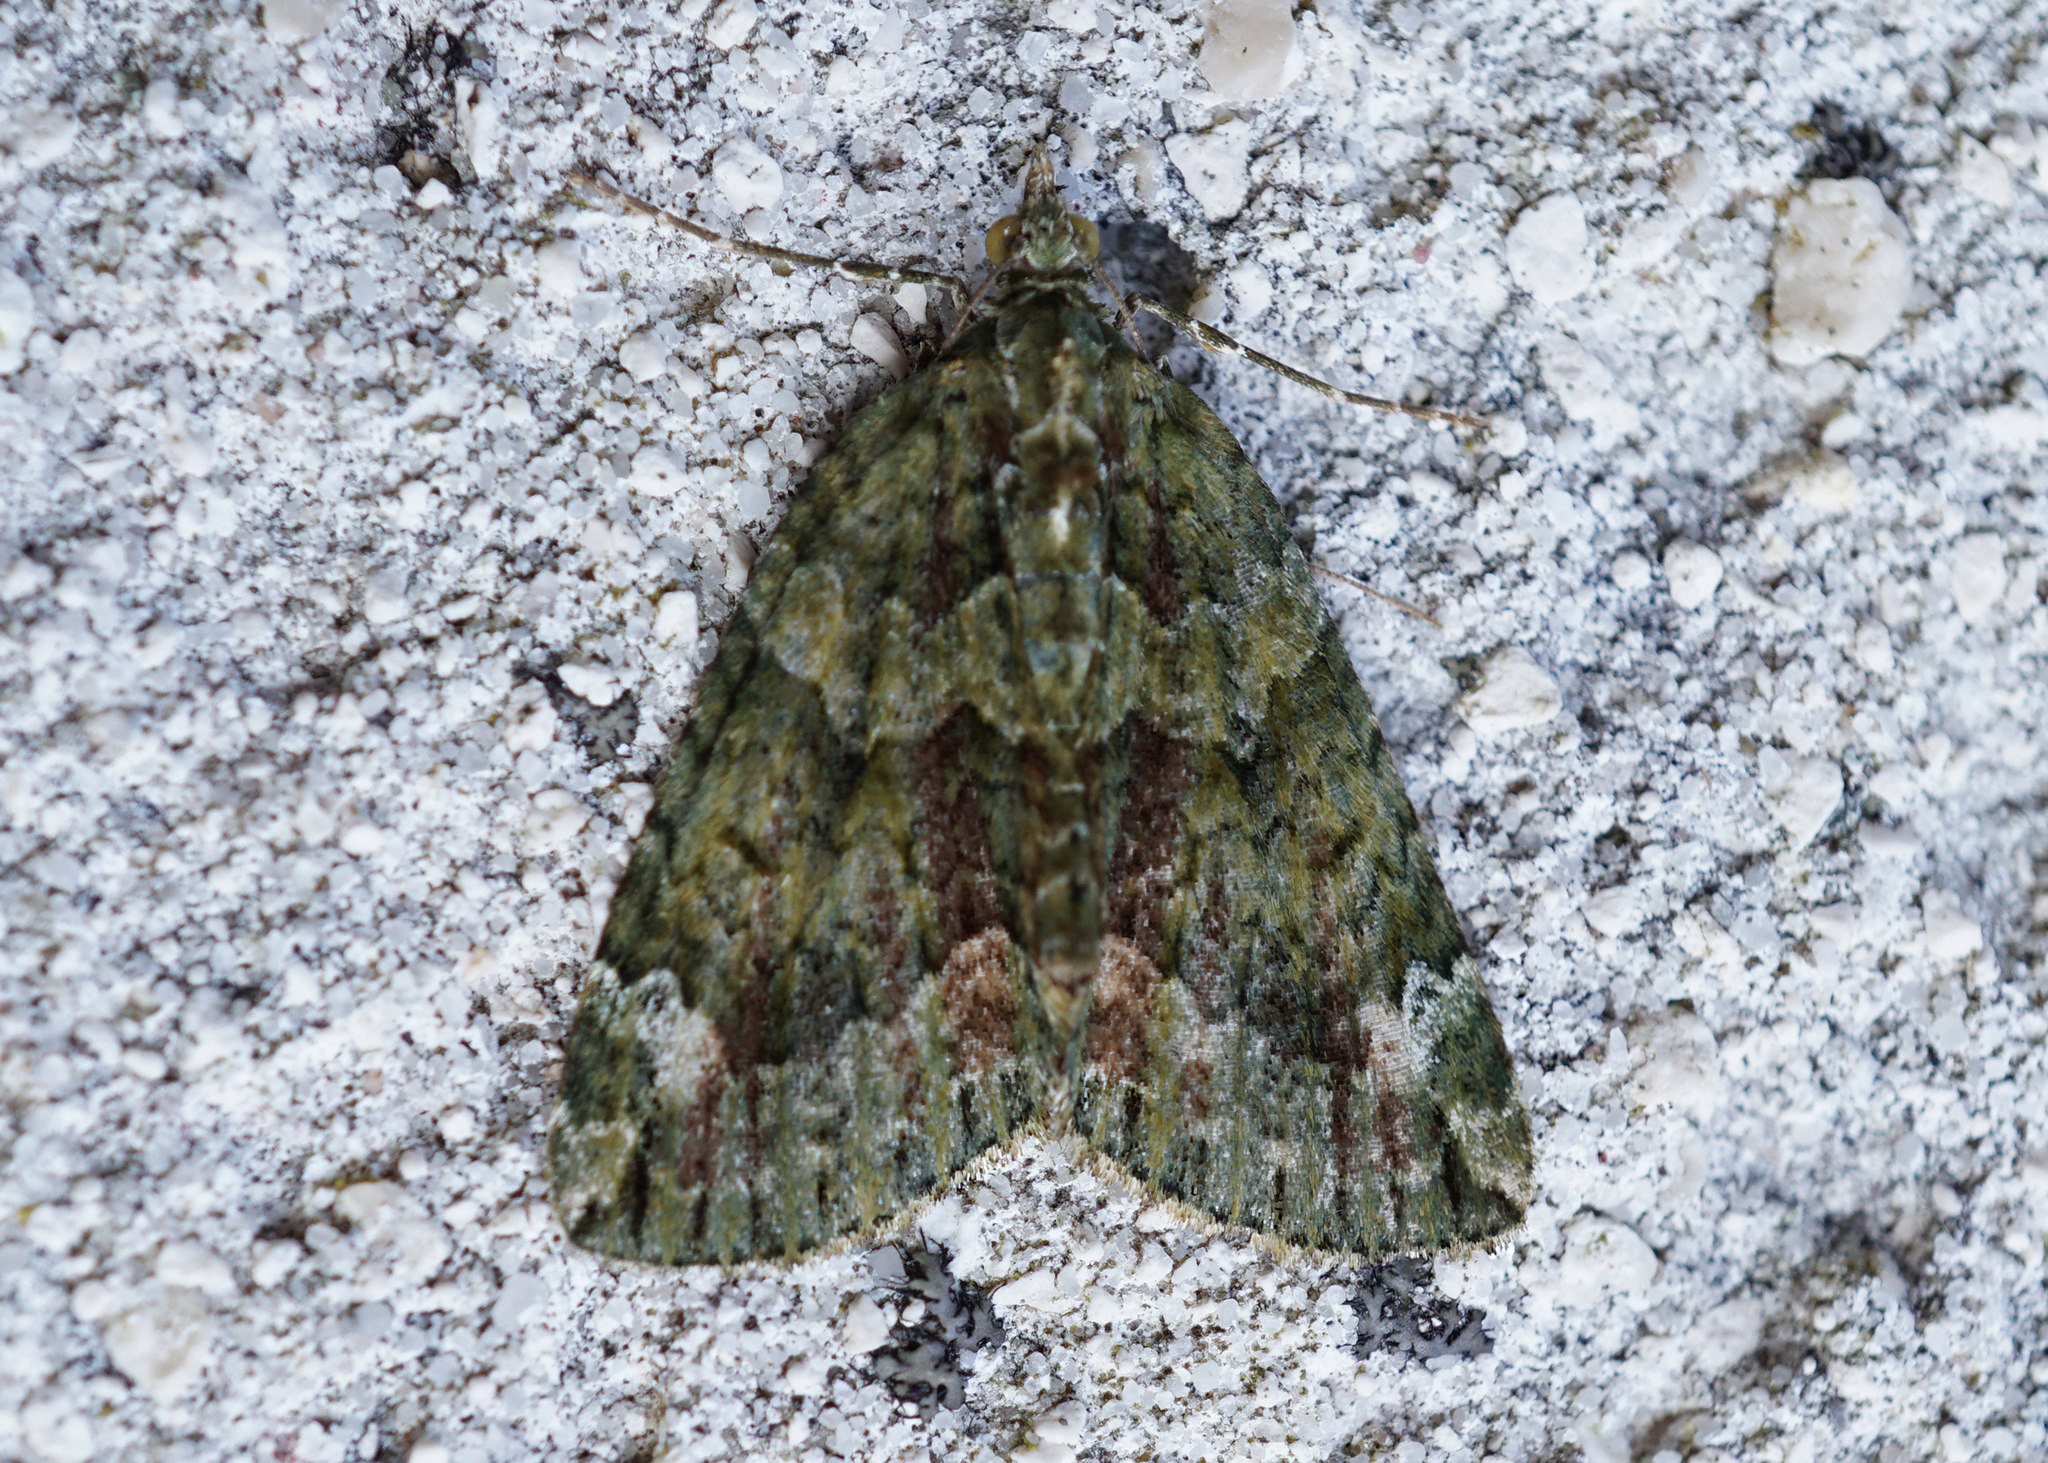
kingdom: Animalia
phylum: Arthropoda
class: Insecta
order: Lepidoptera
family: Geometridae
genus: Chloroclysta
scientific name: Chloroclysta siterata
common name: Red-green carpet
